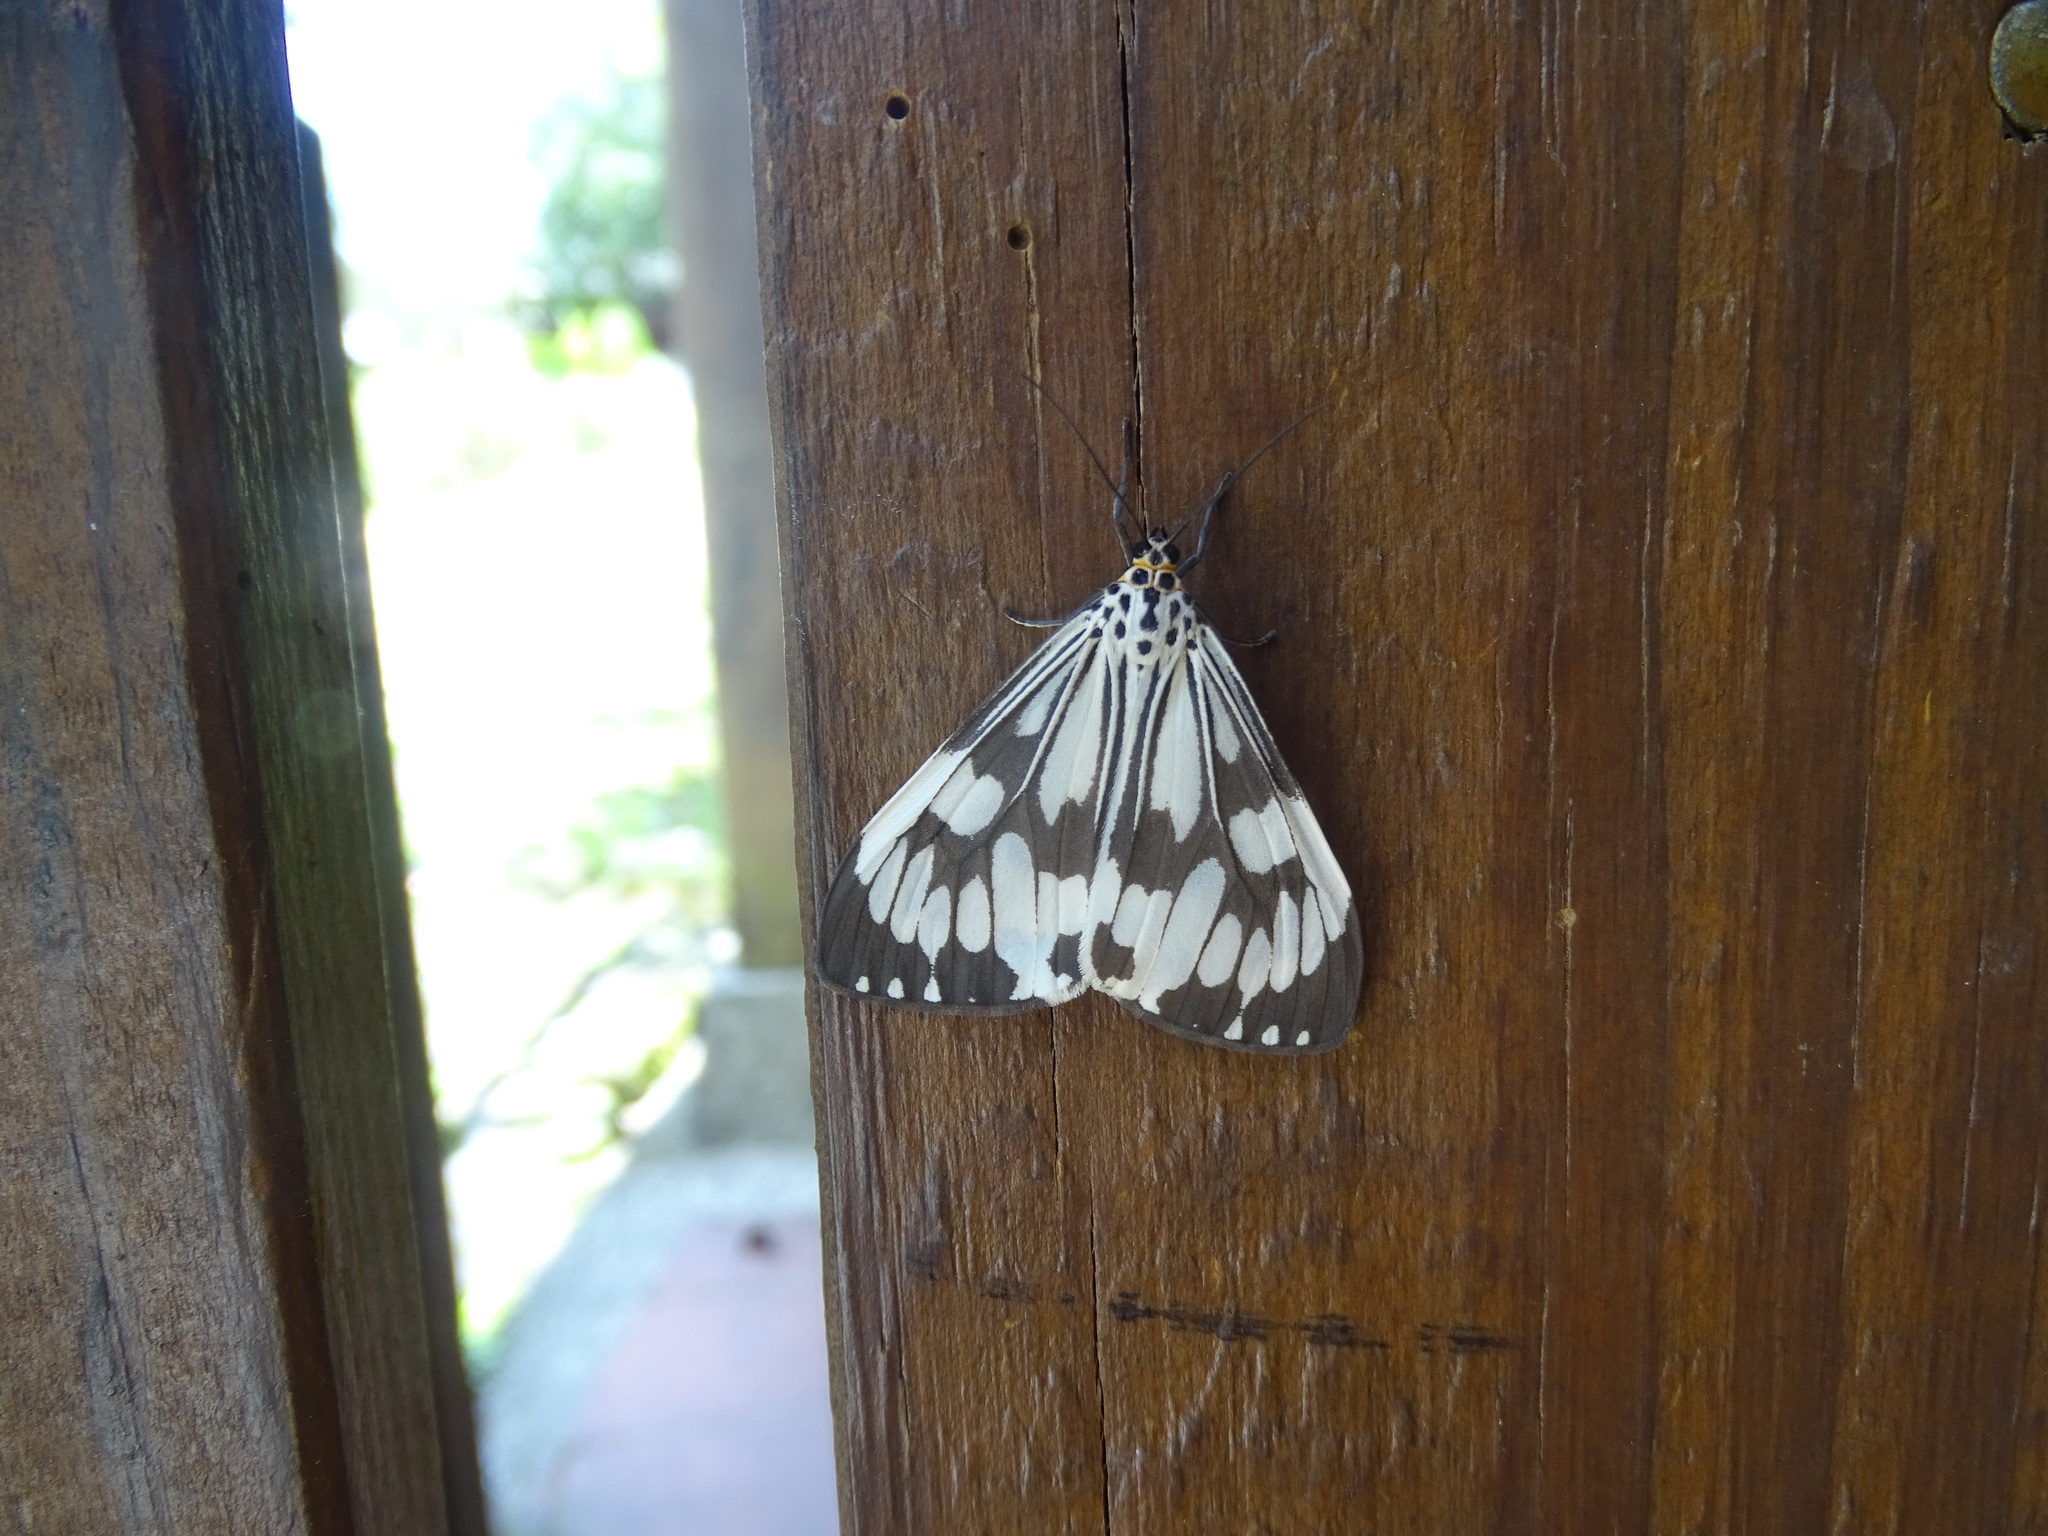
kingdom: Animalia
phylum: Arthropoda
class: Insecta
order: Lepidoptera
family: Erebidae
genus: Nyctemera
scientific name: Nyctemera adversata
